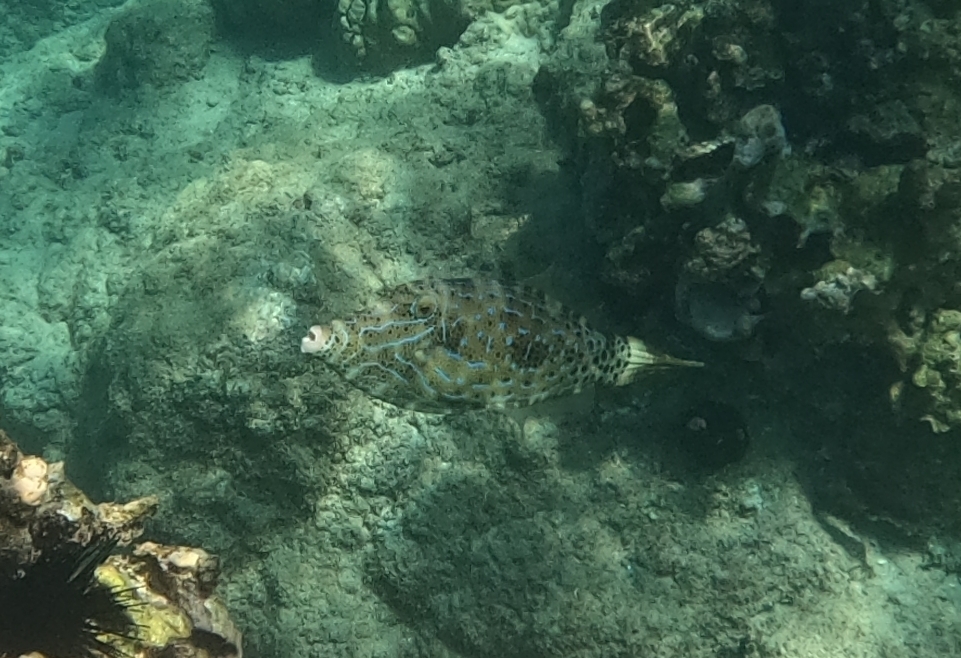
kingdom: Animalia
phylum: Chordata
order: Tetraodontiformes
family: Monacanthidae
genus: Aluterus
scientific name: Aluterus scriptus
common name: Scribbled leatherjacket filefish
